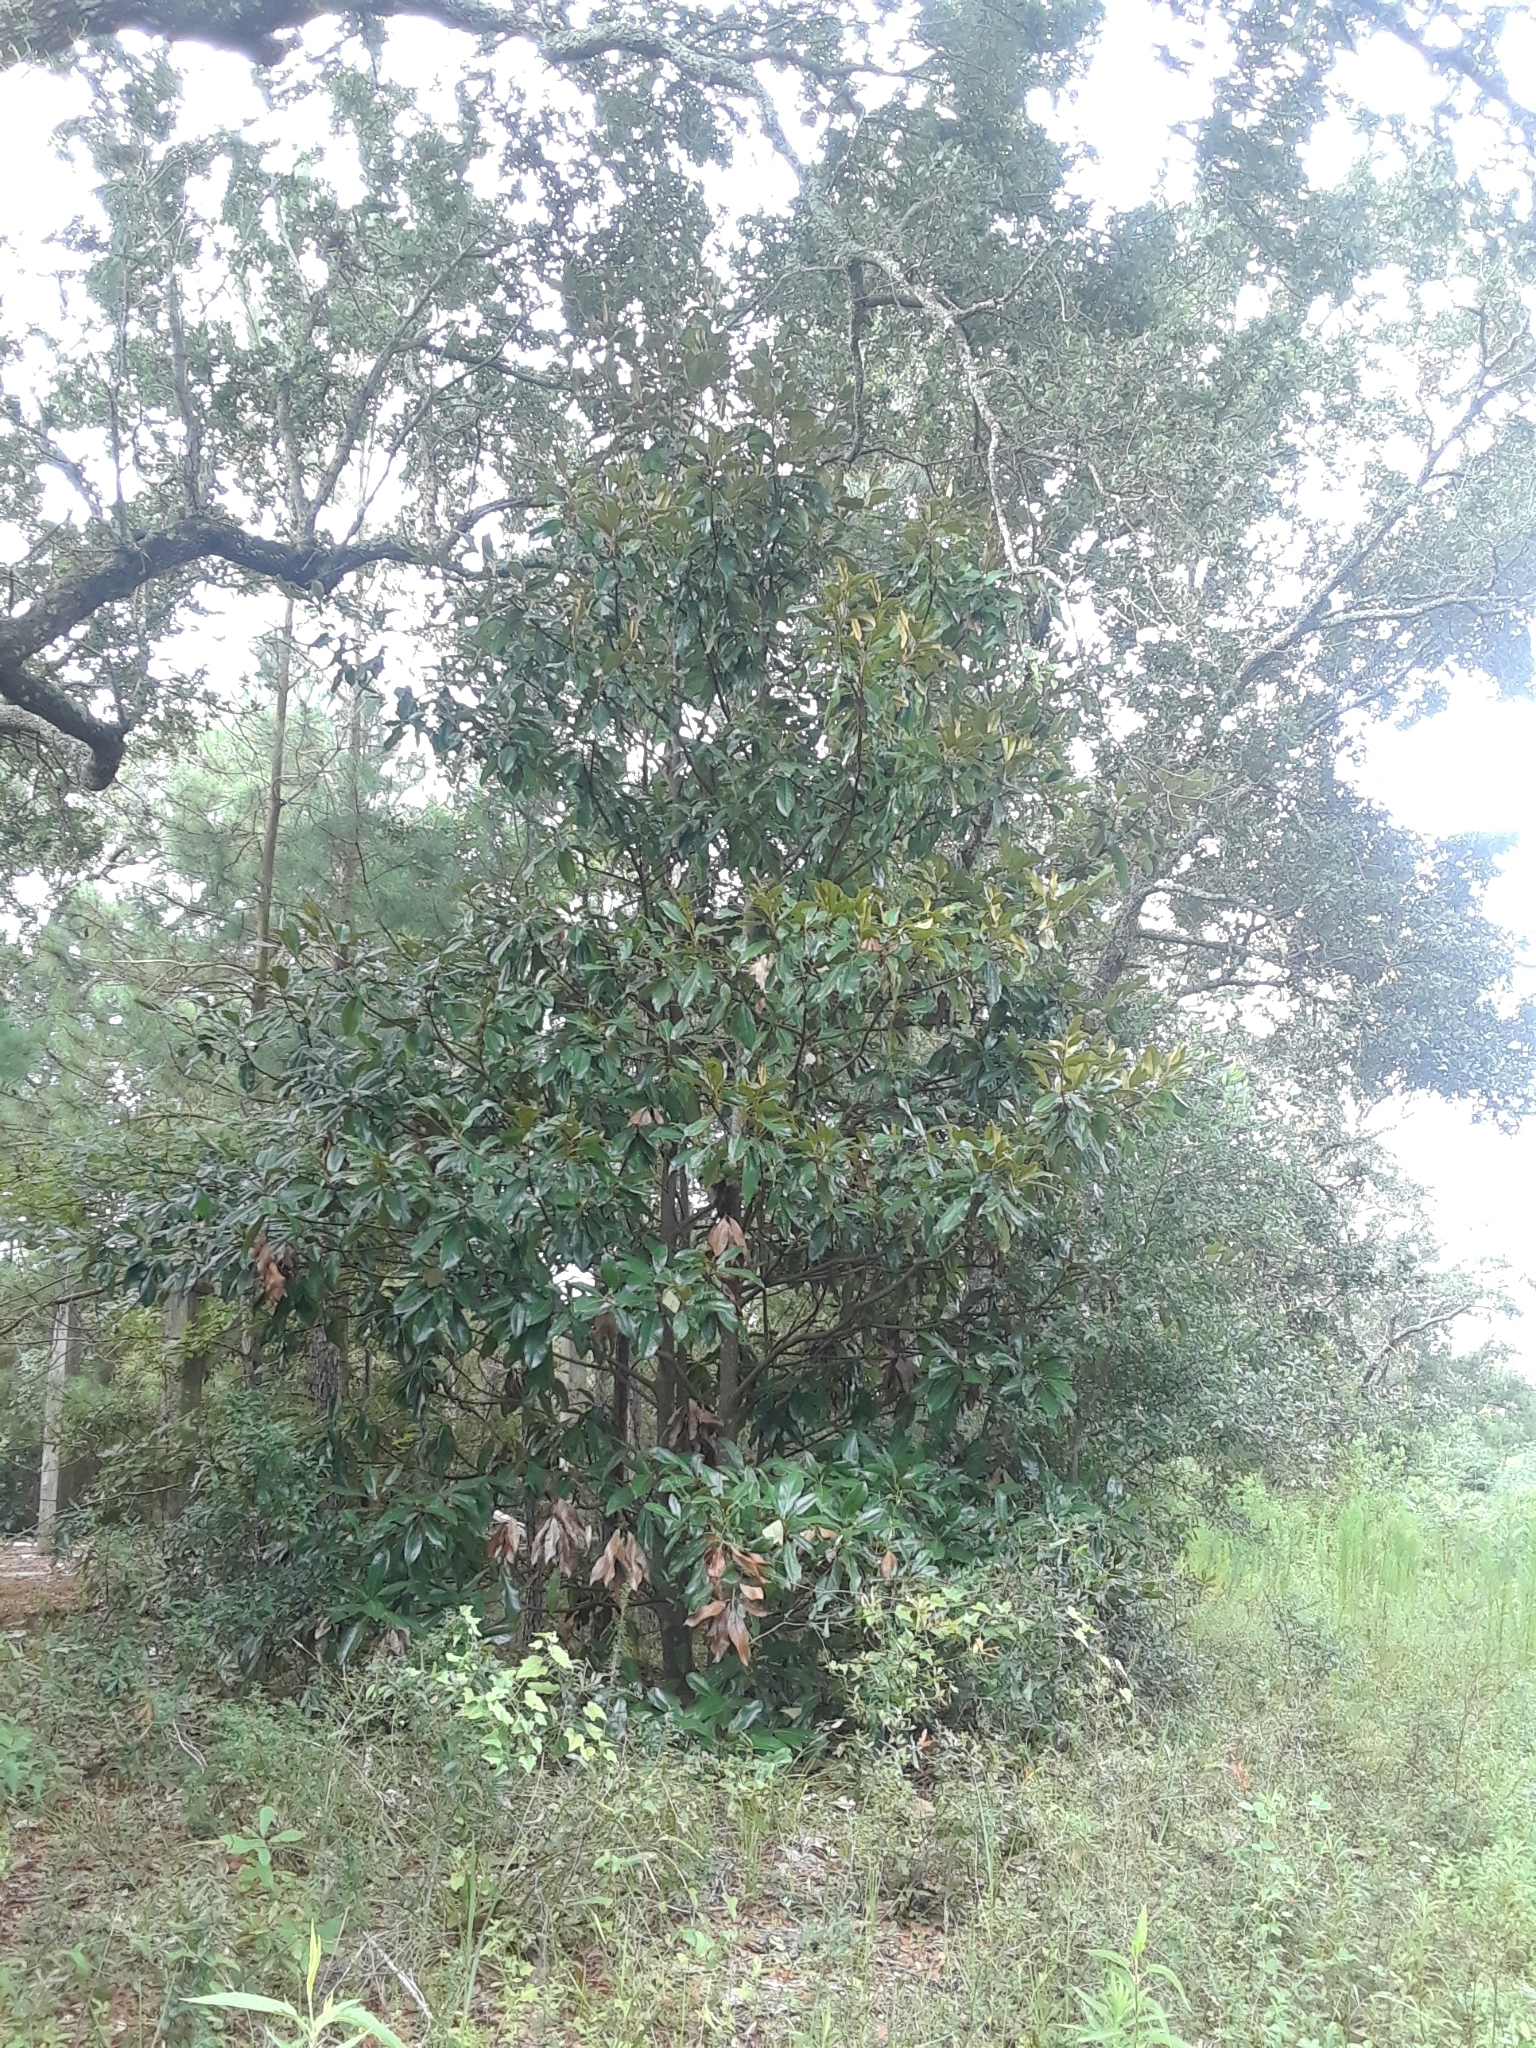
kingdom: Plantae
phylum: Tracheophyta
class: Magnoliopsida
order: Magnoliales
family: Magnoliaceae
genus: Magnolia
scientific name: Magnolia grandiflora
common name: Southern magnolia
